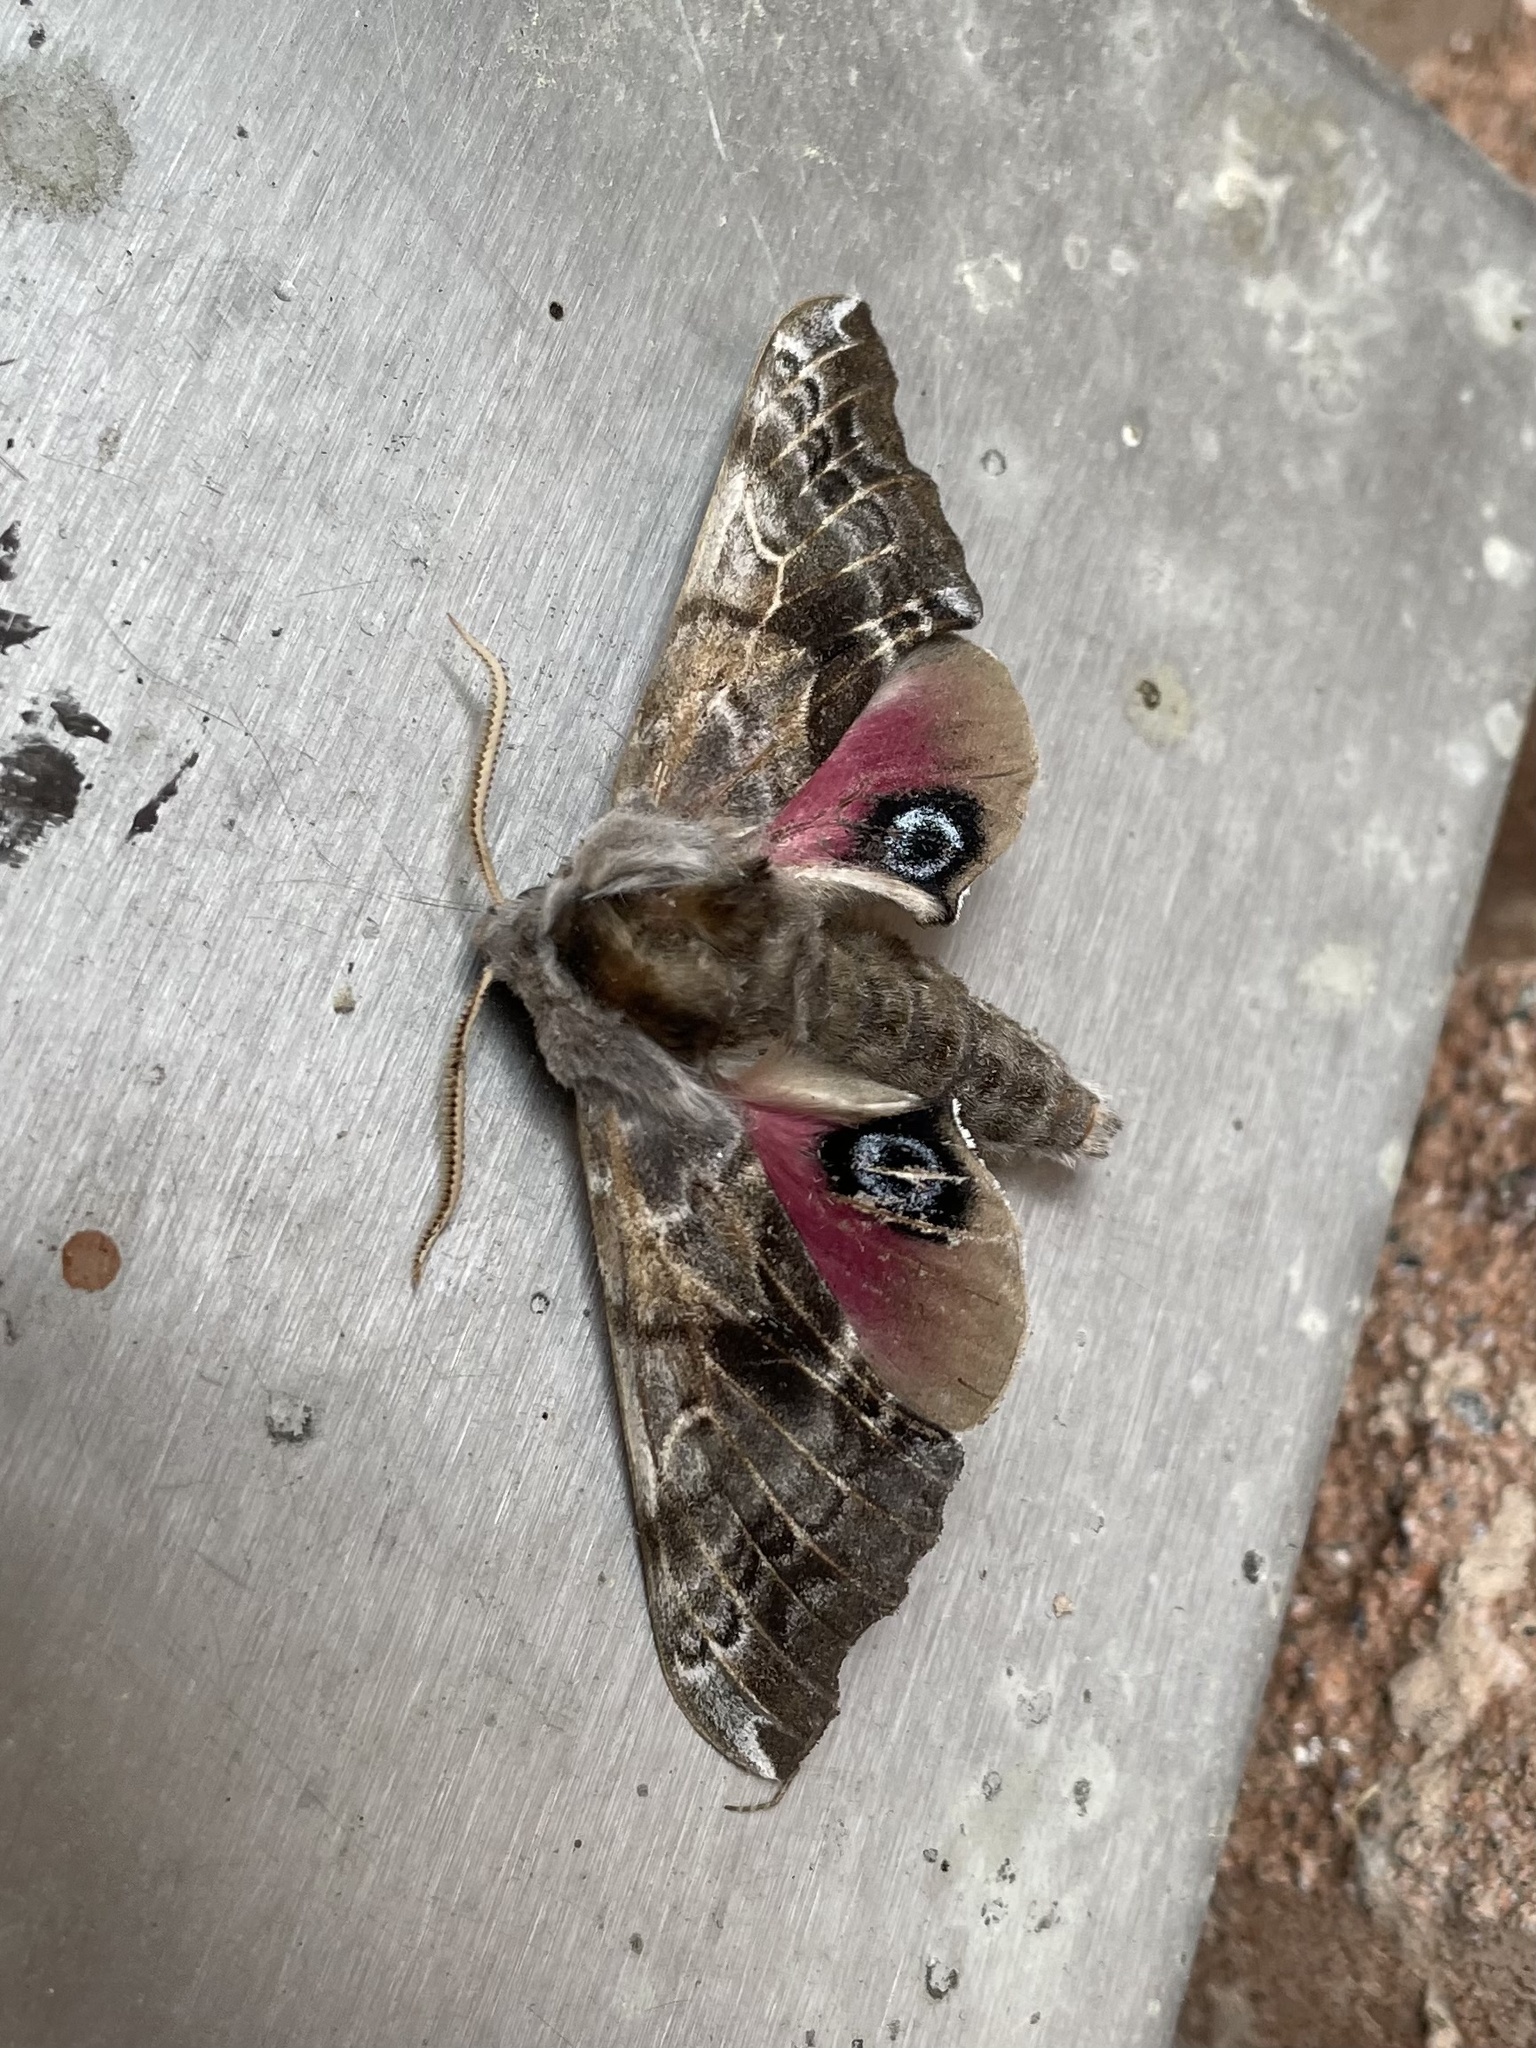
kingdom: Animalia
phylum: Arthropoda
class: Insecta
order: Lepidoptera
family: Sphingidae
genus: Smerinthus
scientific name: Smerinthus cerisyi
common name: Cerisy's sphinx moth
